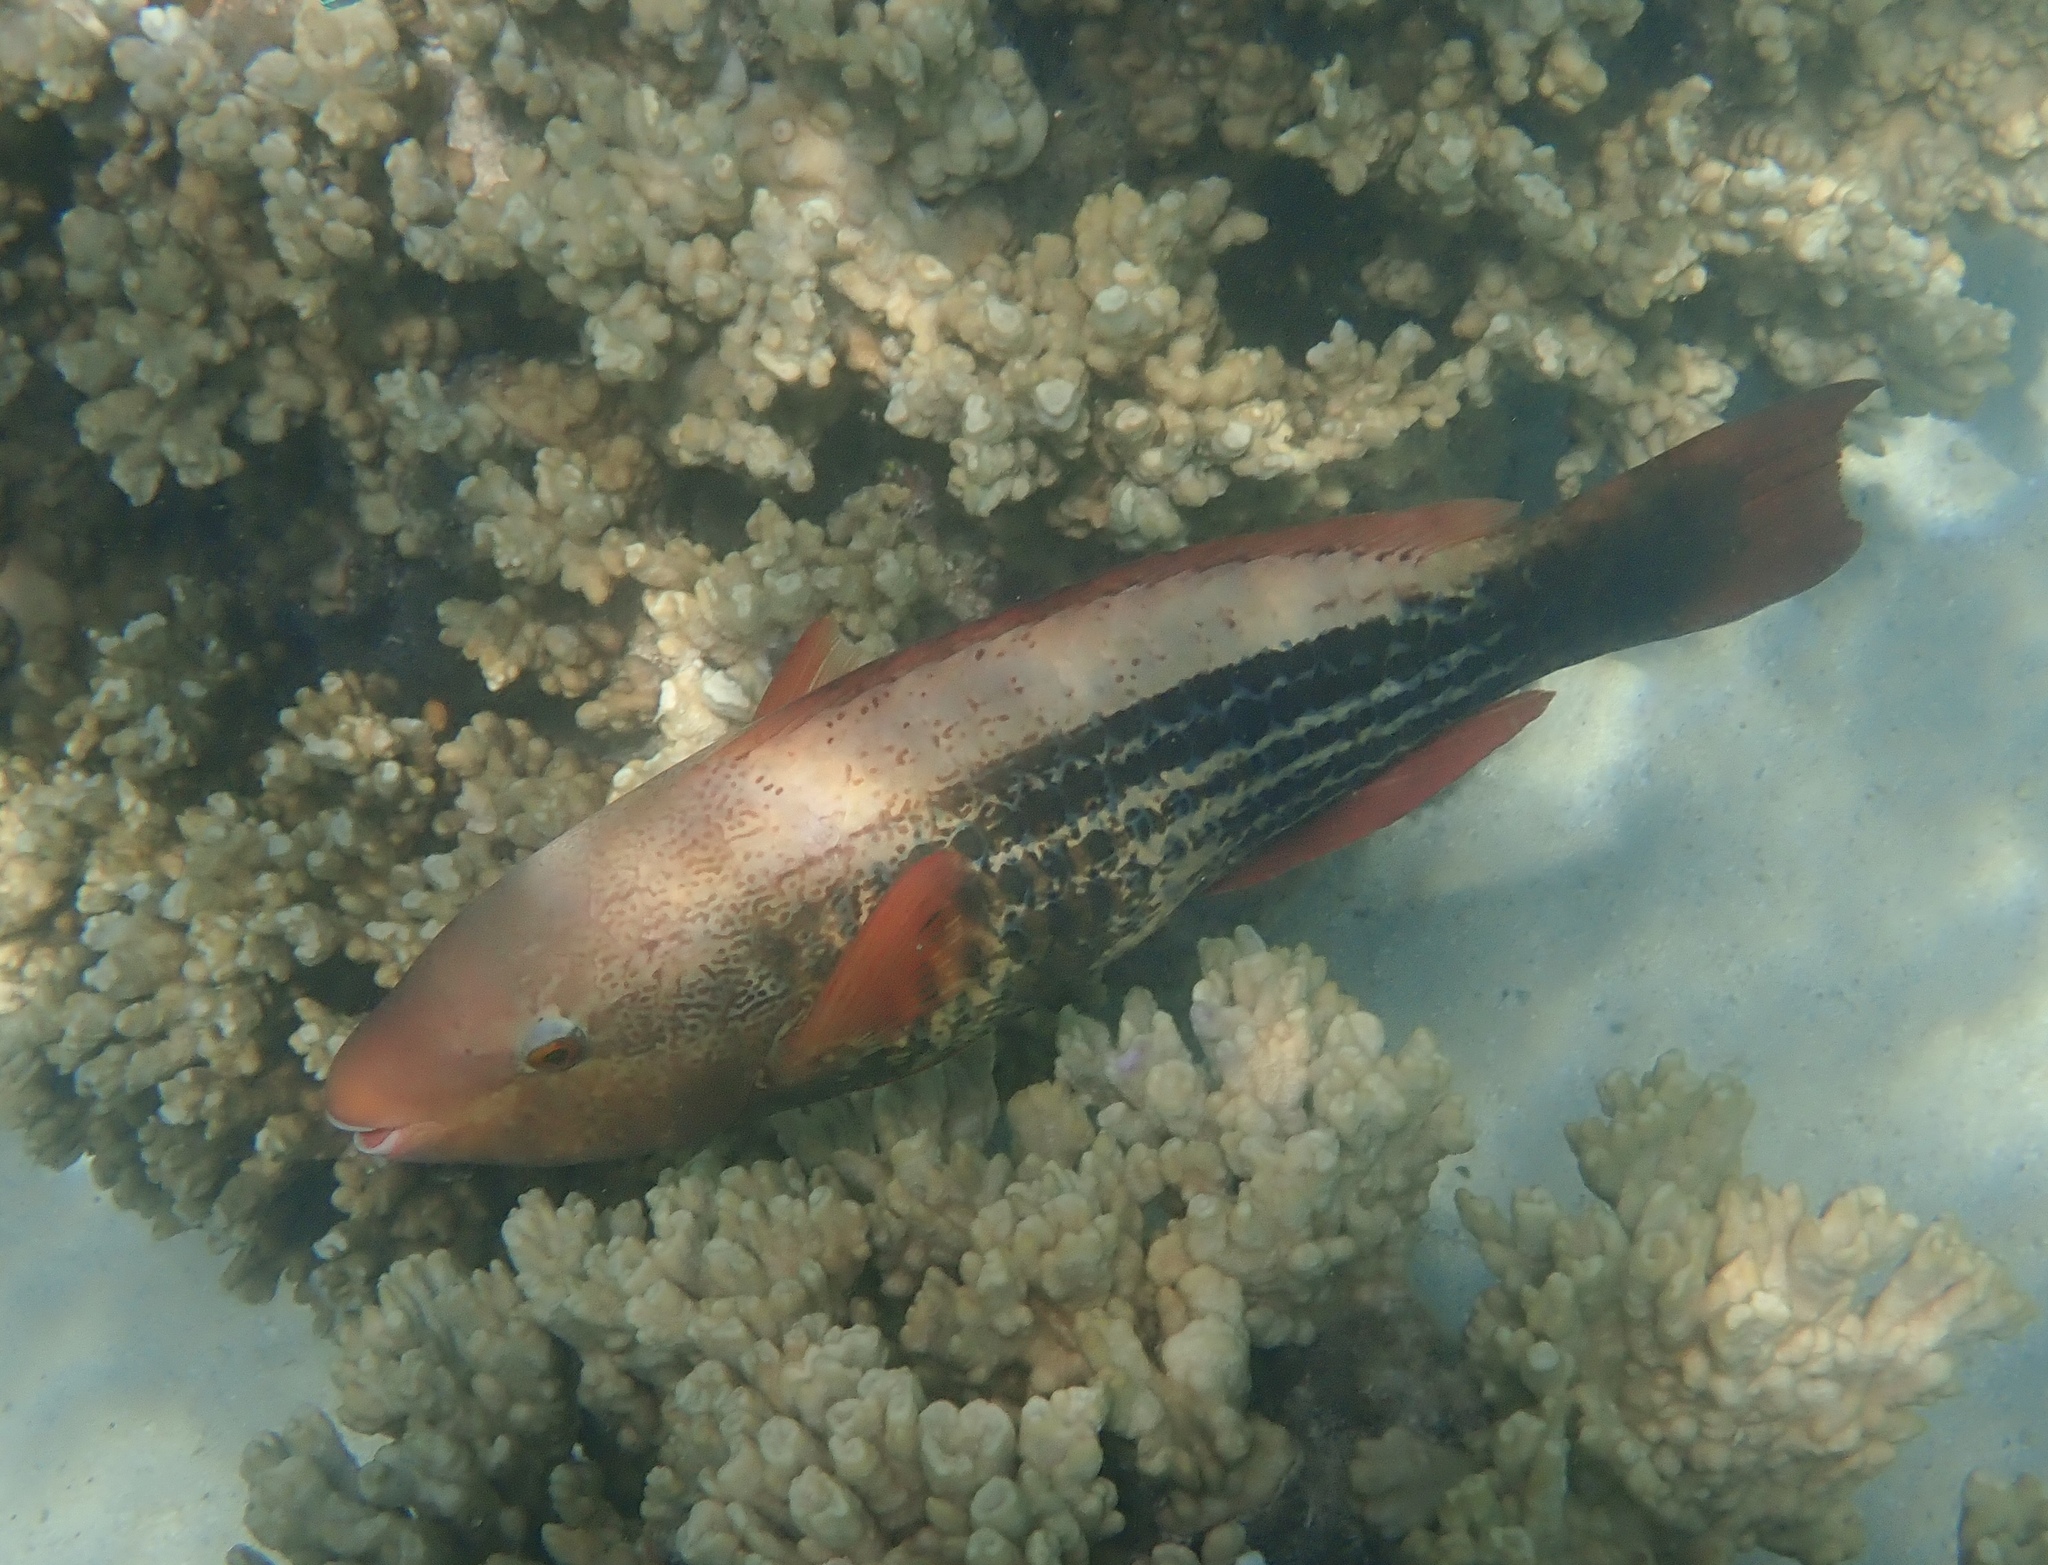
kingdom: Animalia
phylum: Chordata
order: Perciformes
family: Scaridae
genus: Scarus
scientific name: Scarus frenatus
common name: Bridled parrotfish
